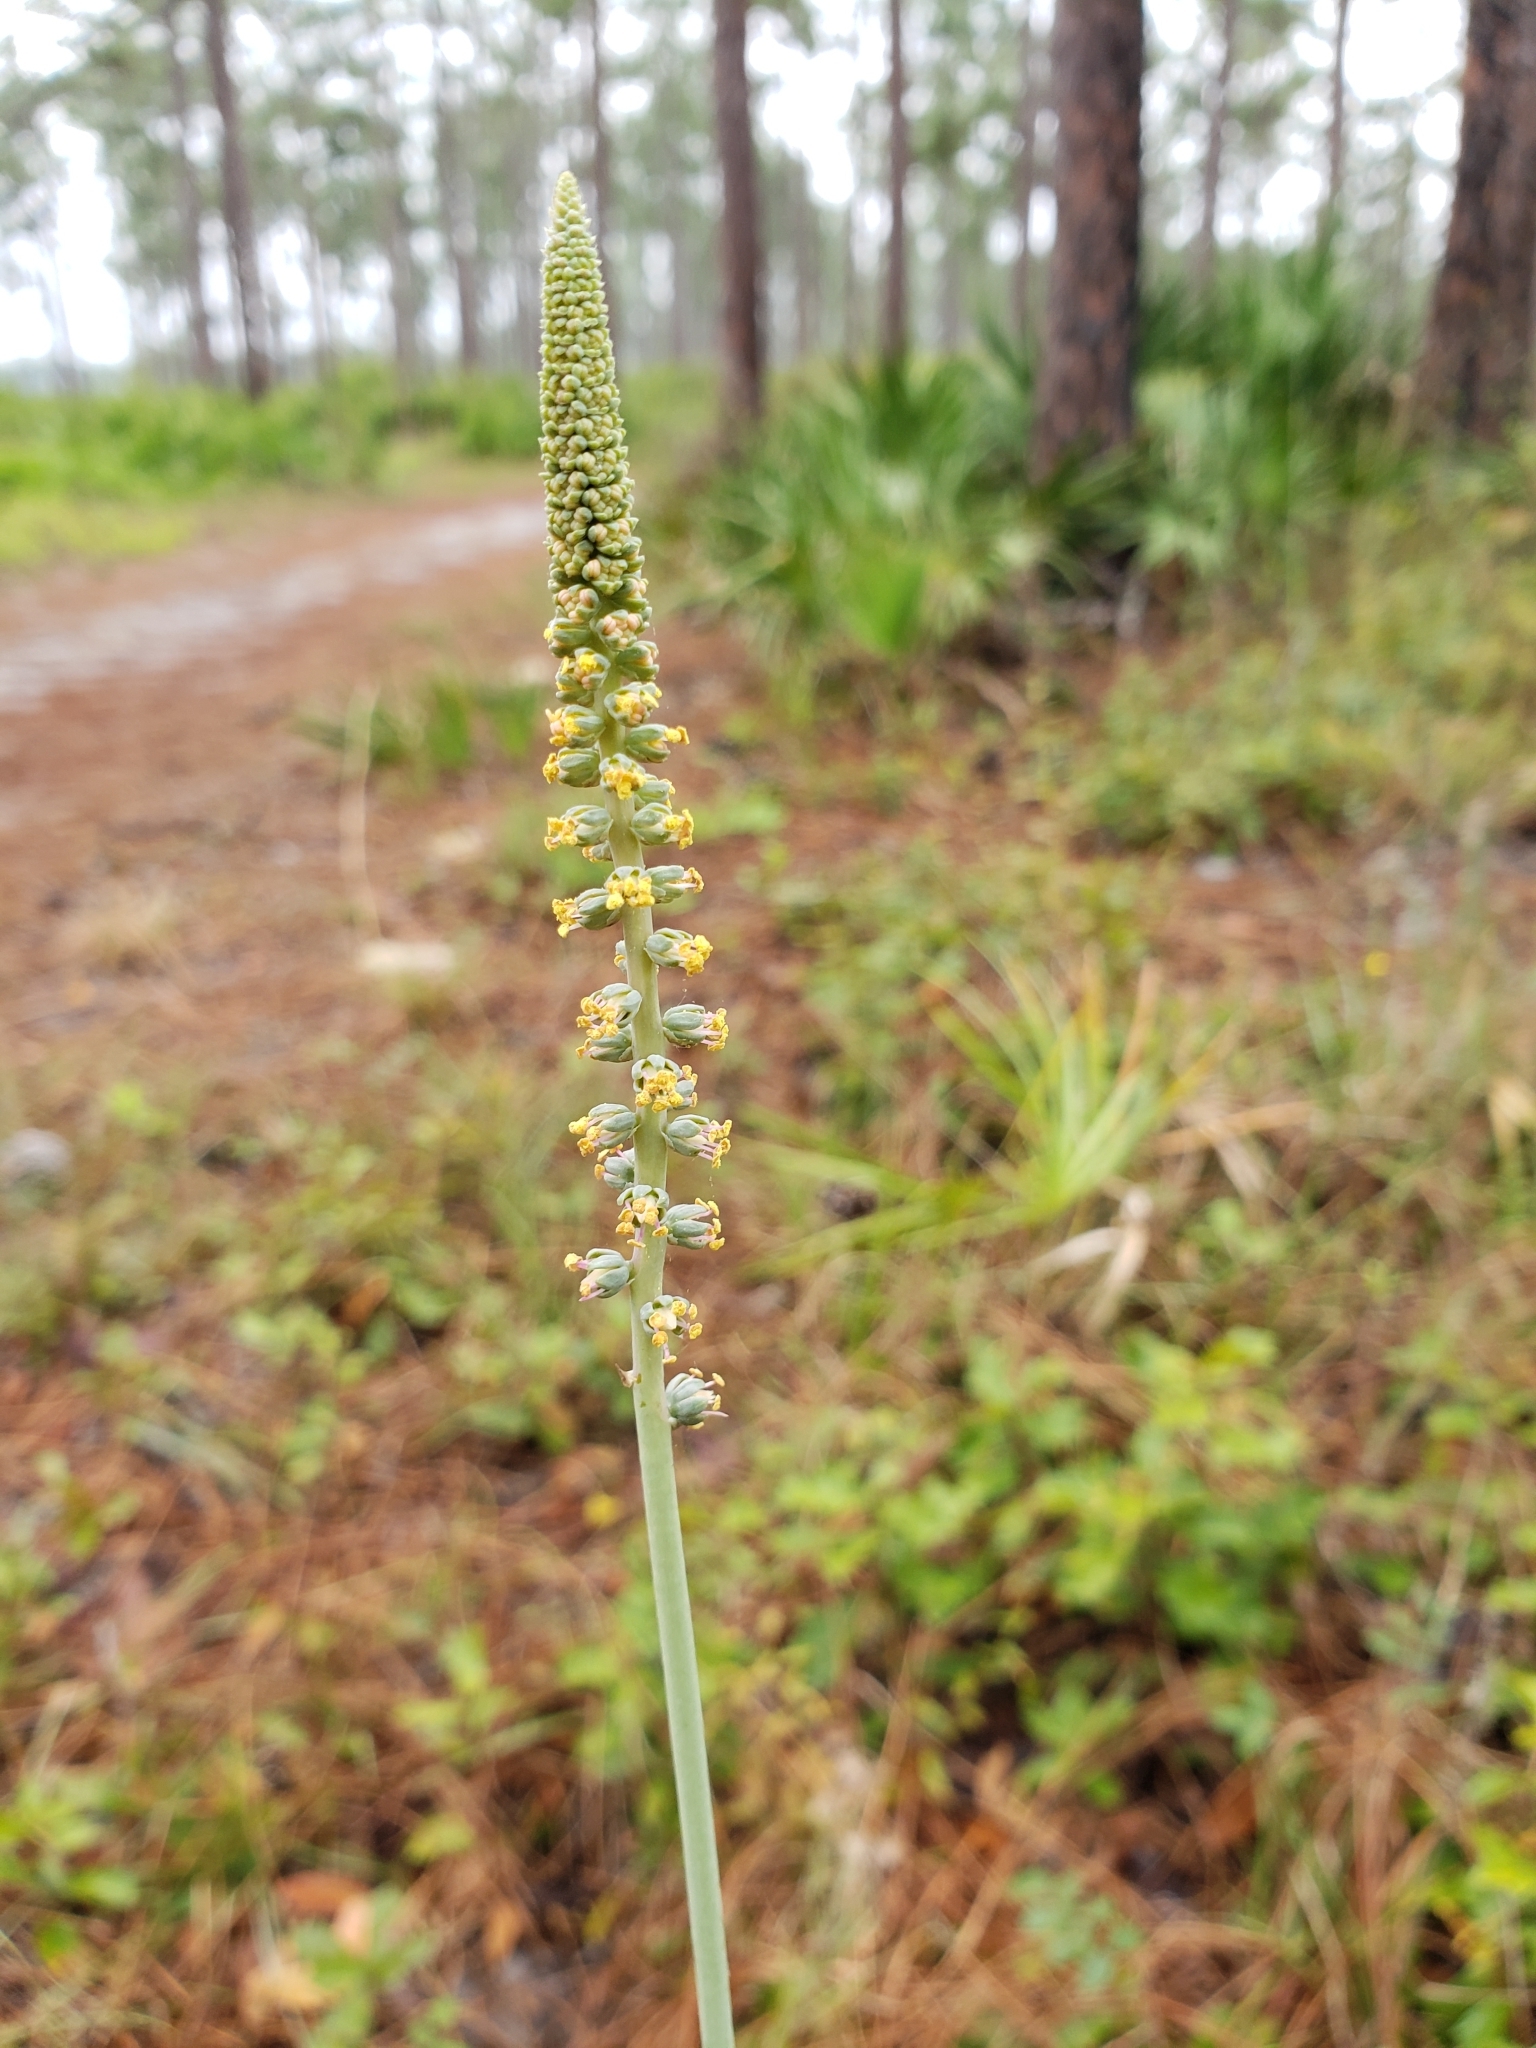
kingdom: Plantae
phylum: Tracheophyta
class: Liliopsida
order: Liliales
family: Melanthiaceae
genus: Schoenocaulon
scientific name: Schoenocaulon dubium
